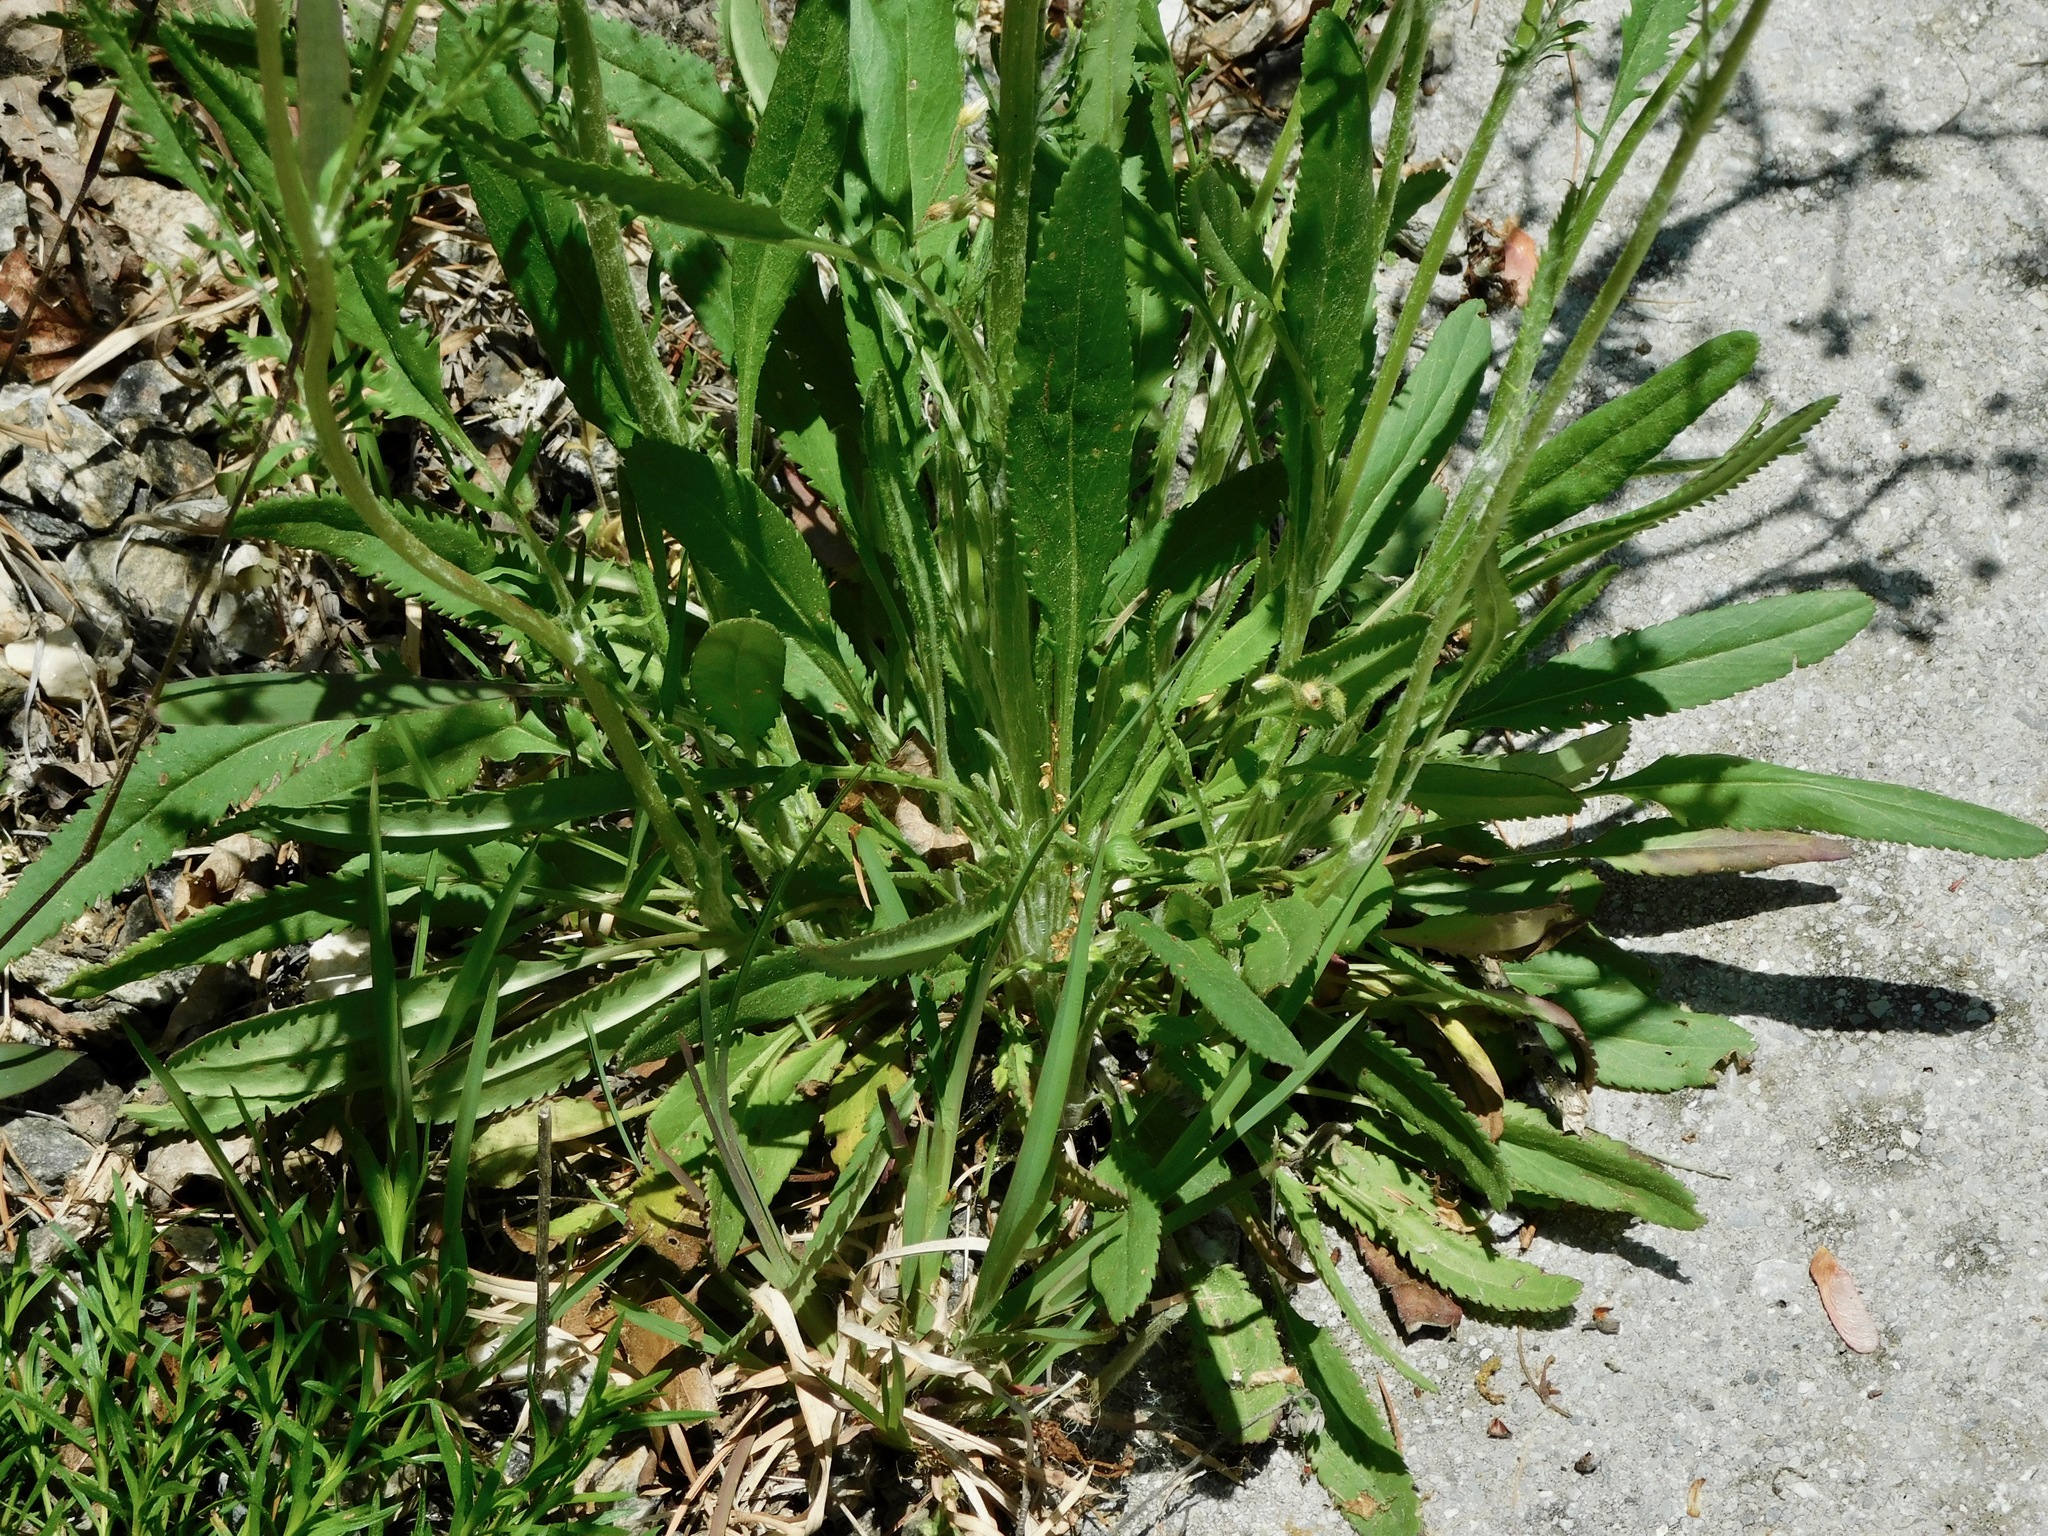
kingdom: Plantae
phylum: Tracheophyta
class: Magnoliopsida
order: Asterales
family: Asteraceae
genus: Packera
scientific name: Packera anonyma
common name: Small ragwort
